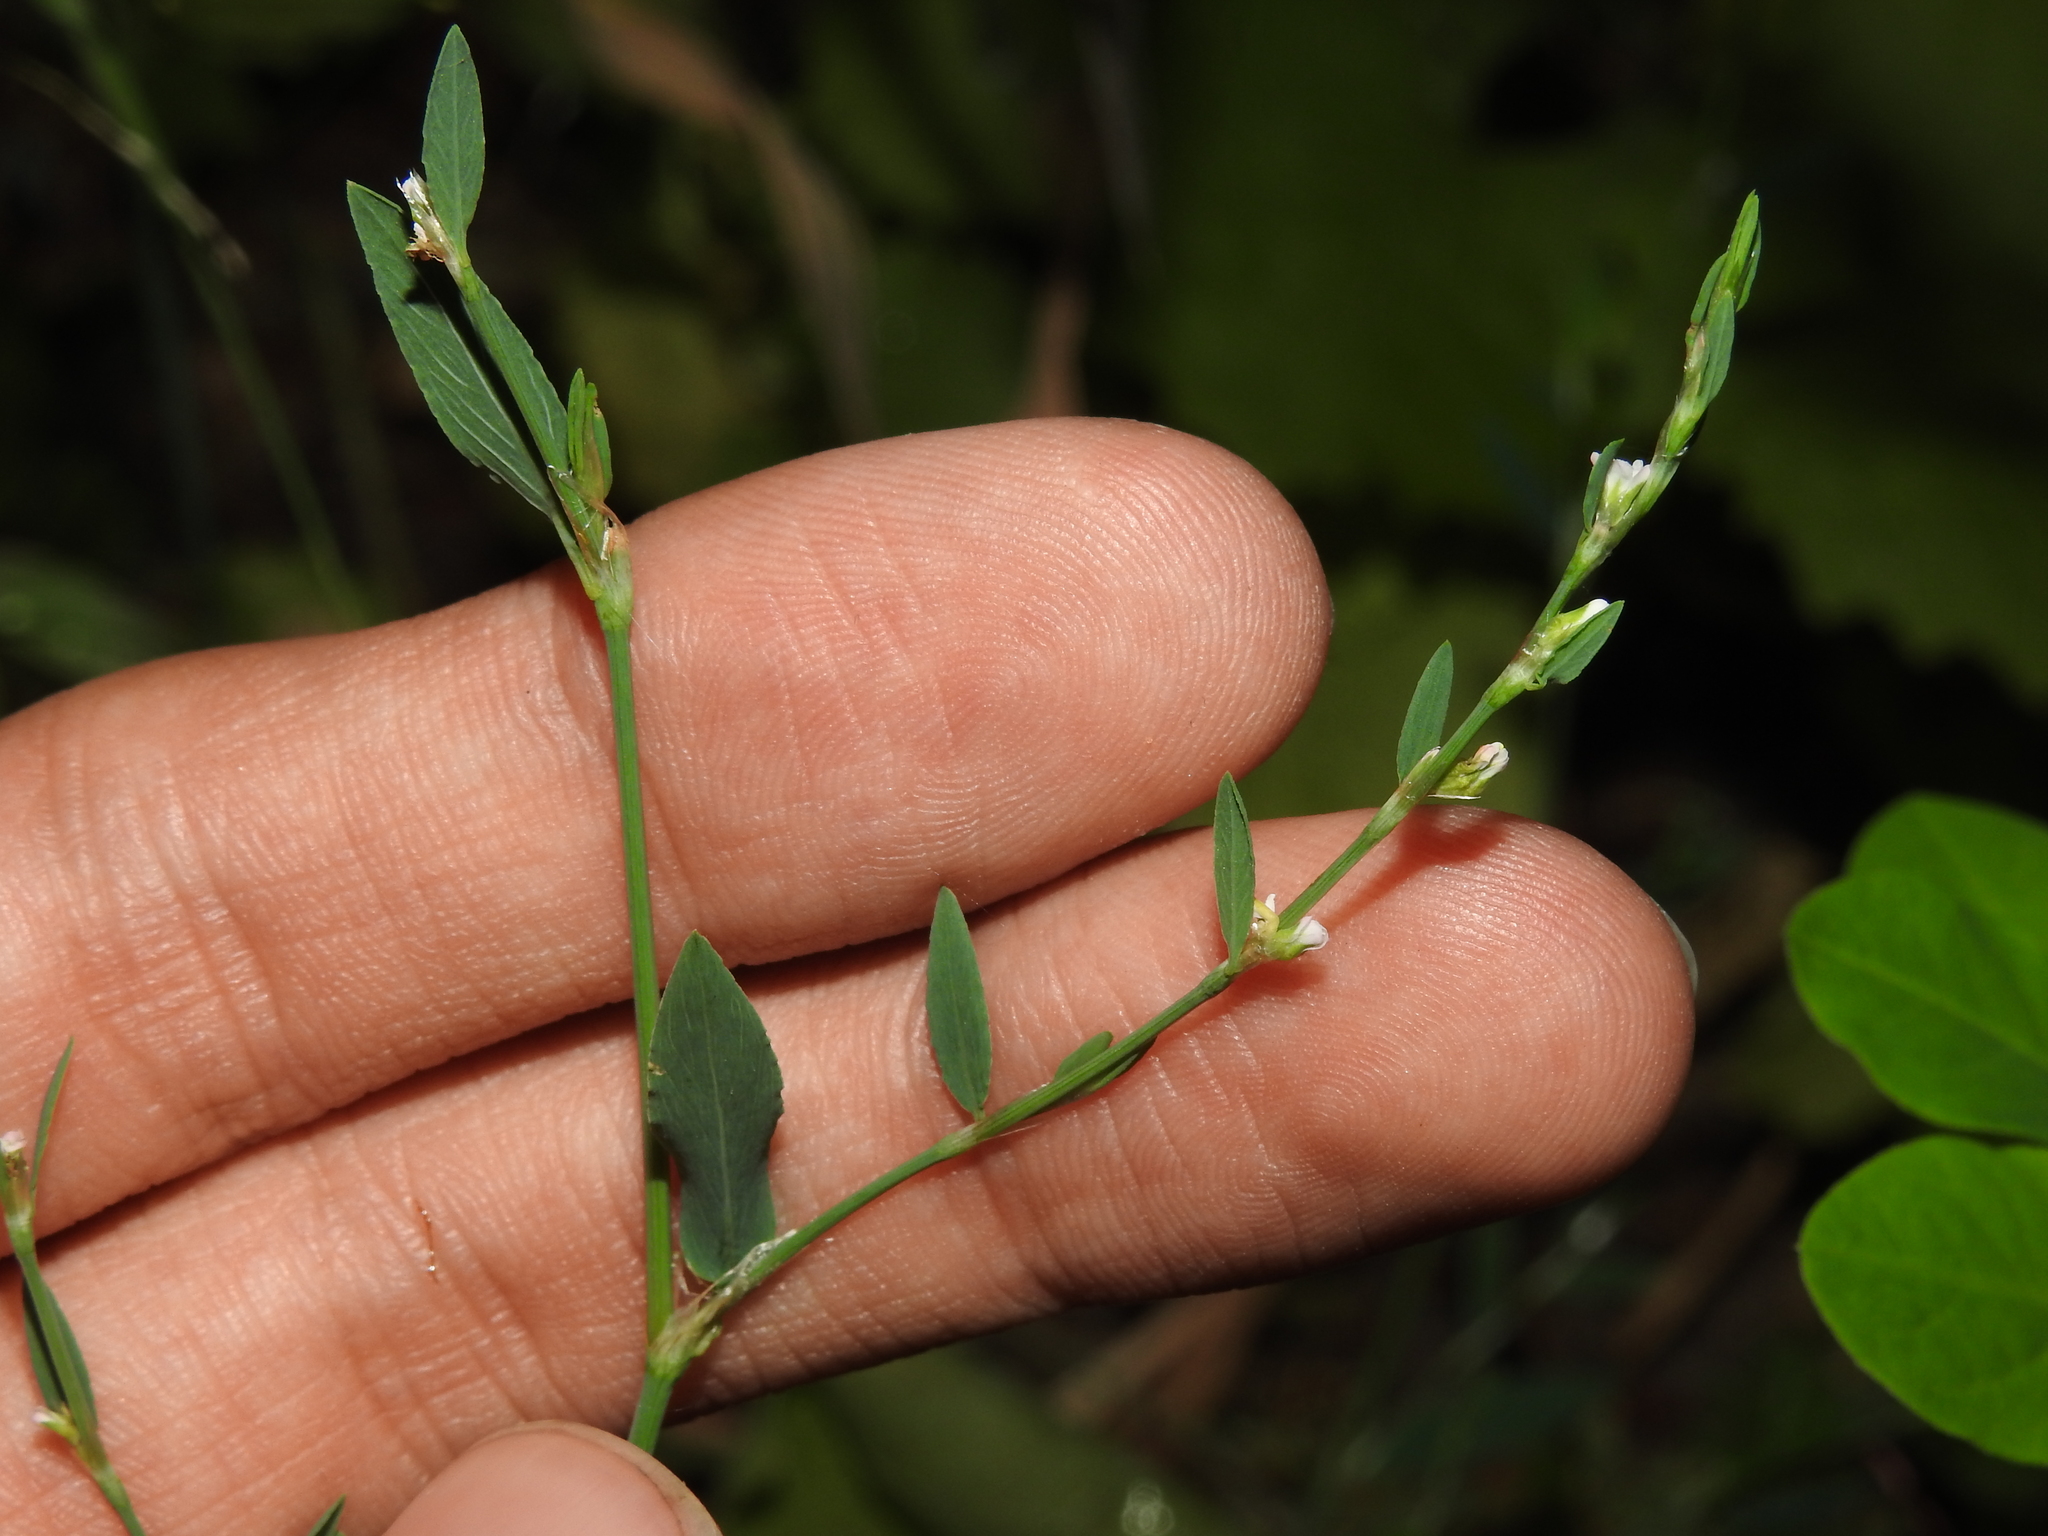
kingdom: Plantae
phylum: Tracheophyta
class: Magnoliopsida
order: Caryophyllales
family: Polygonaceae
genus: Polygonum
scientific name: Polygonum aviculare
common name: Prostrate knotweed
